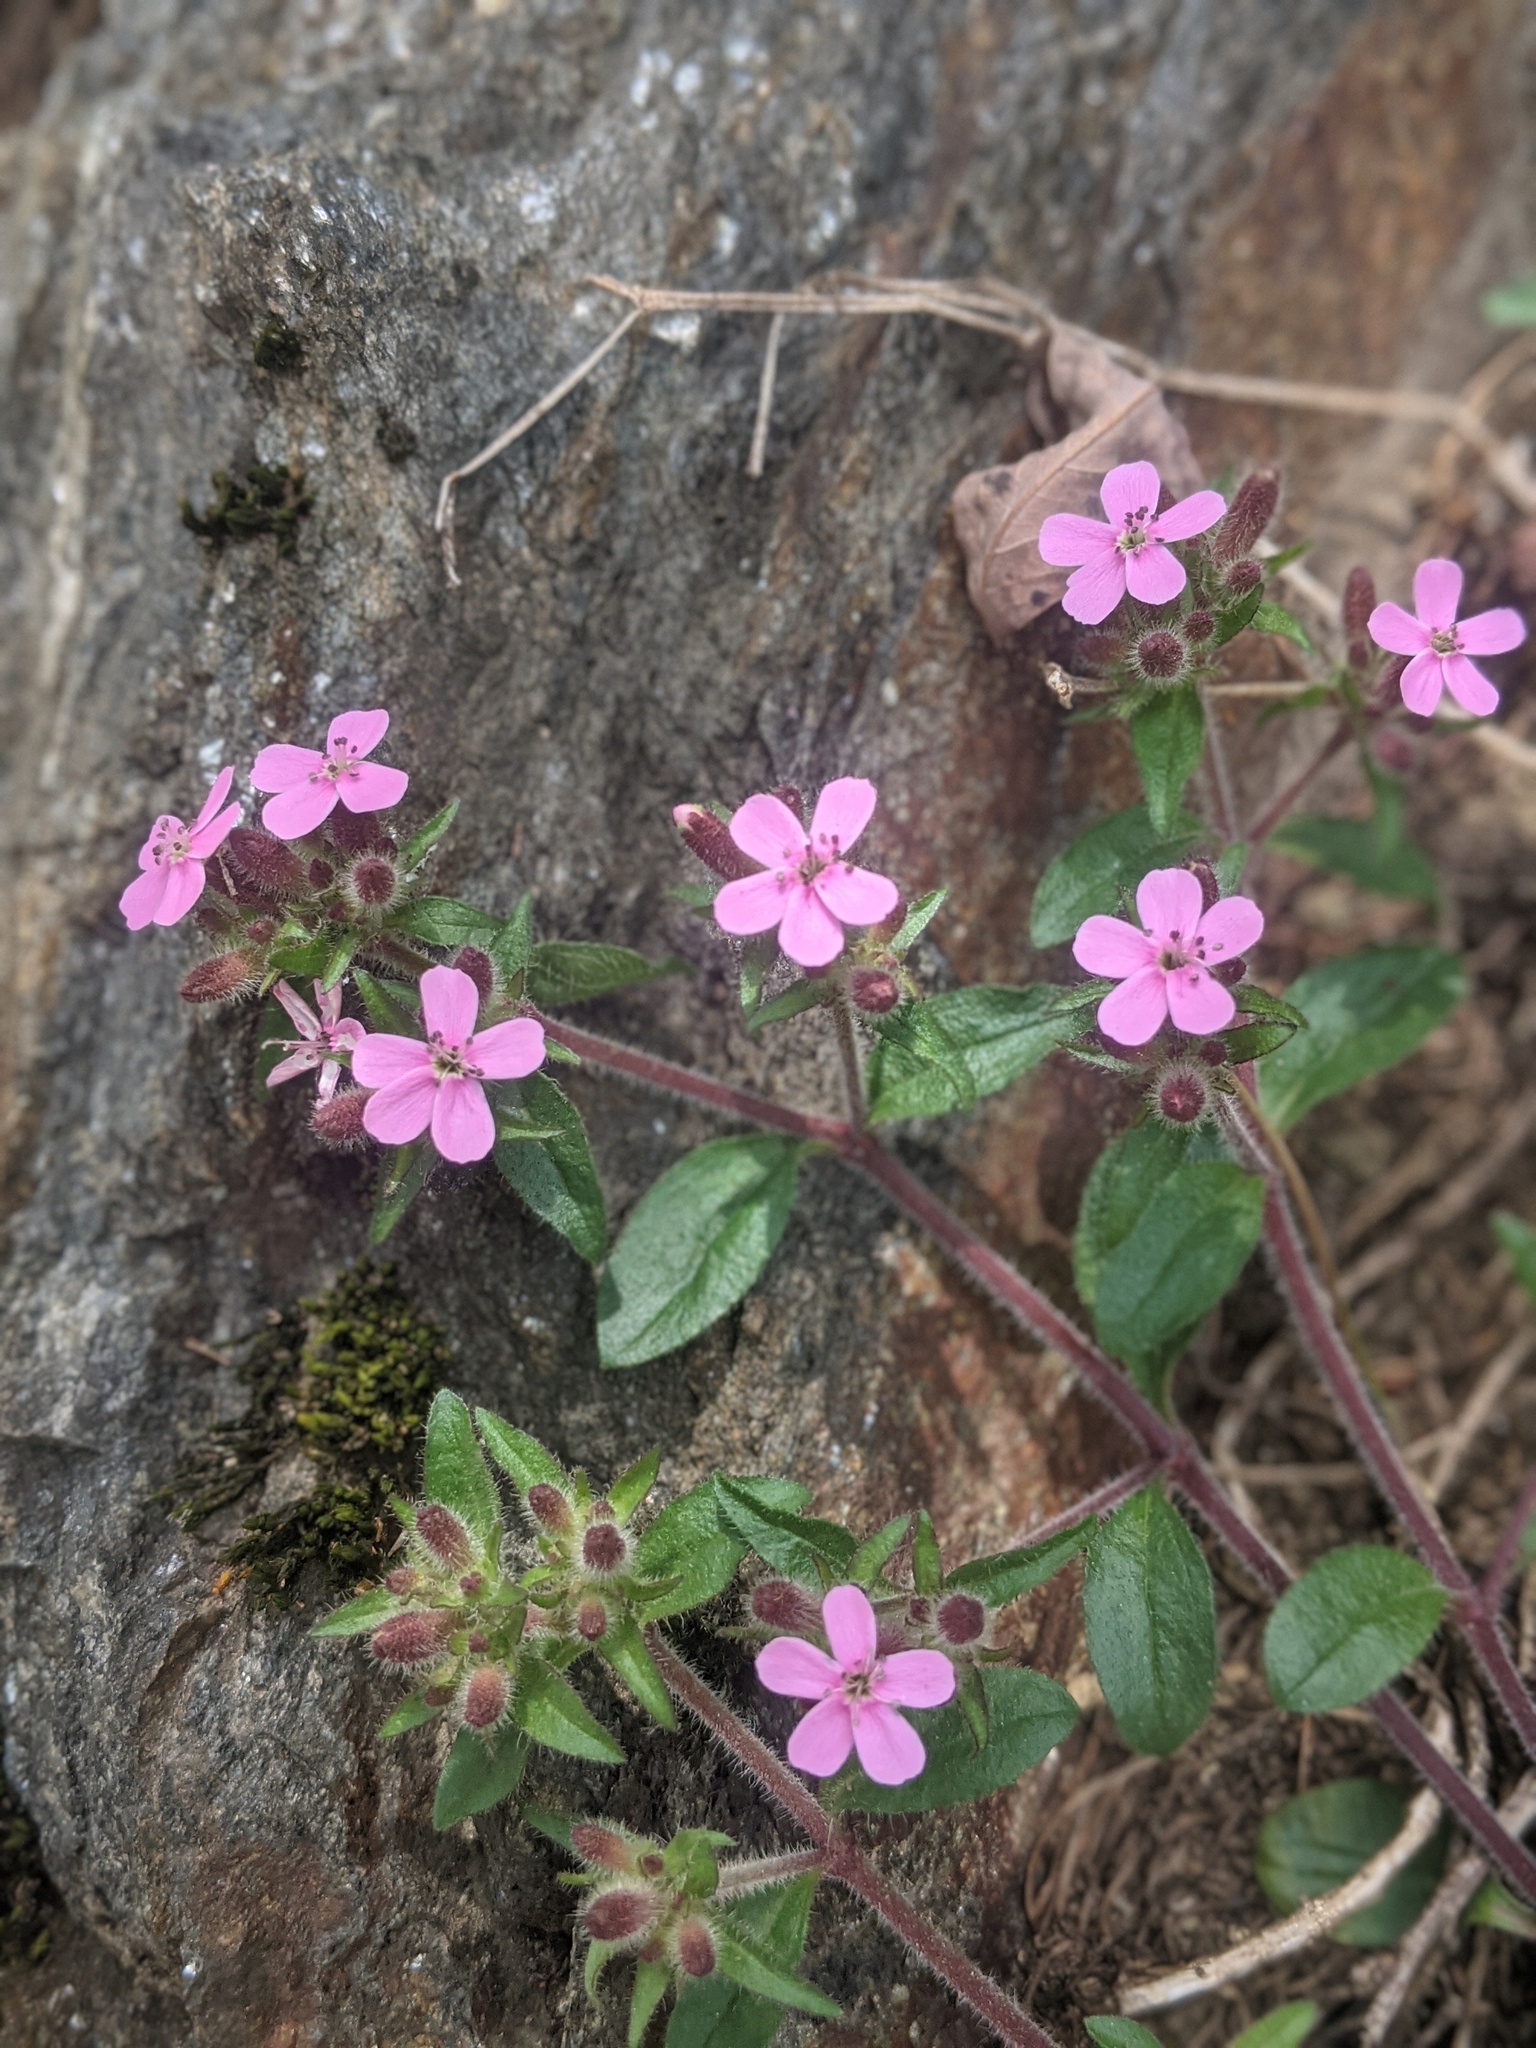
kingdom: Plantae
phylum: Tracheophyta
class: Magnoliopsida
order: Caryophyllales
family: Caryophyllaceae
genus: Saponaria
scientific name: Saponaria ocymoides
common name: Rock soapwort
